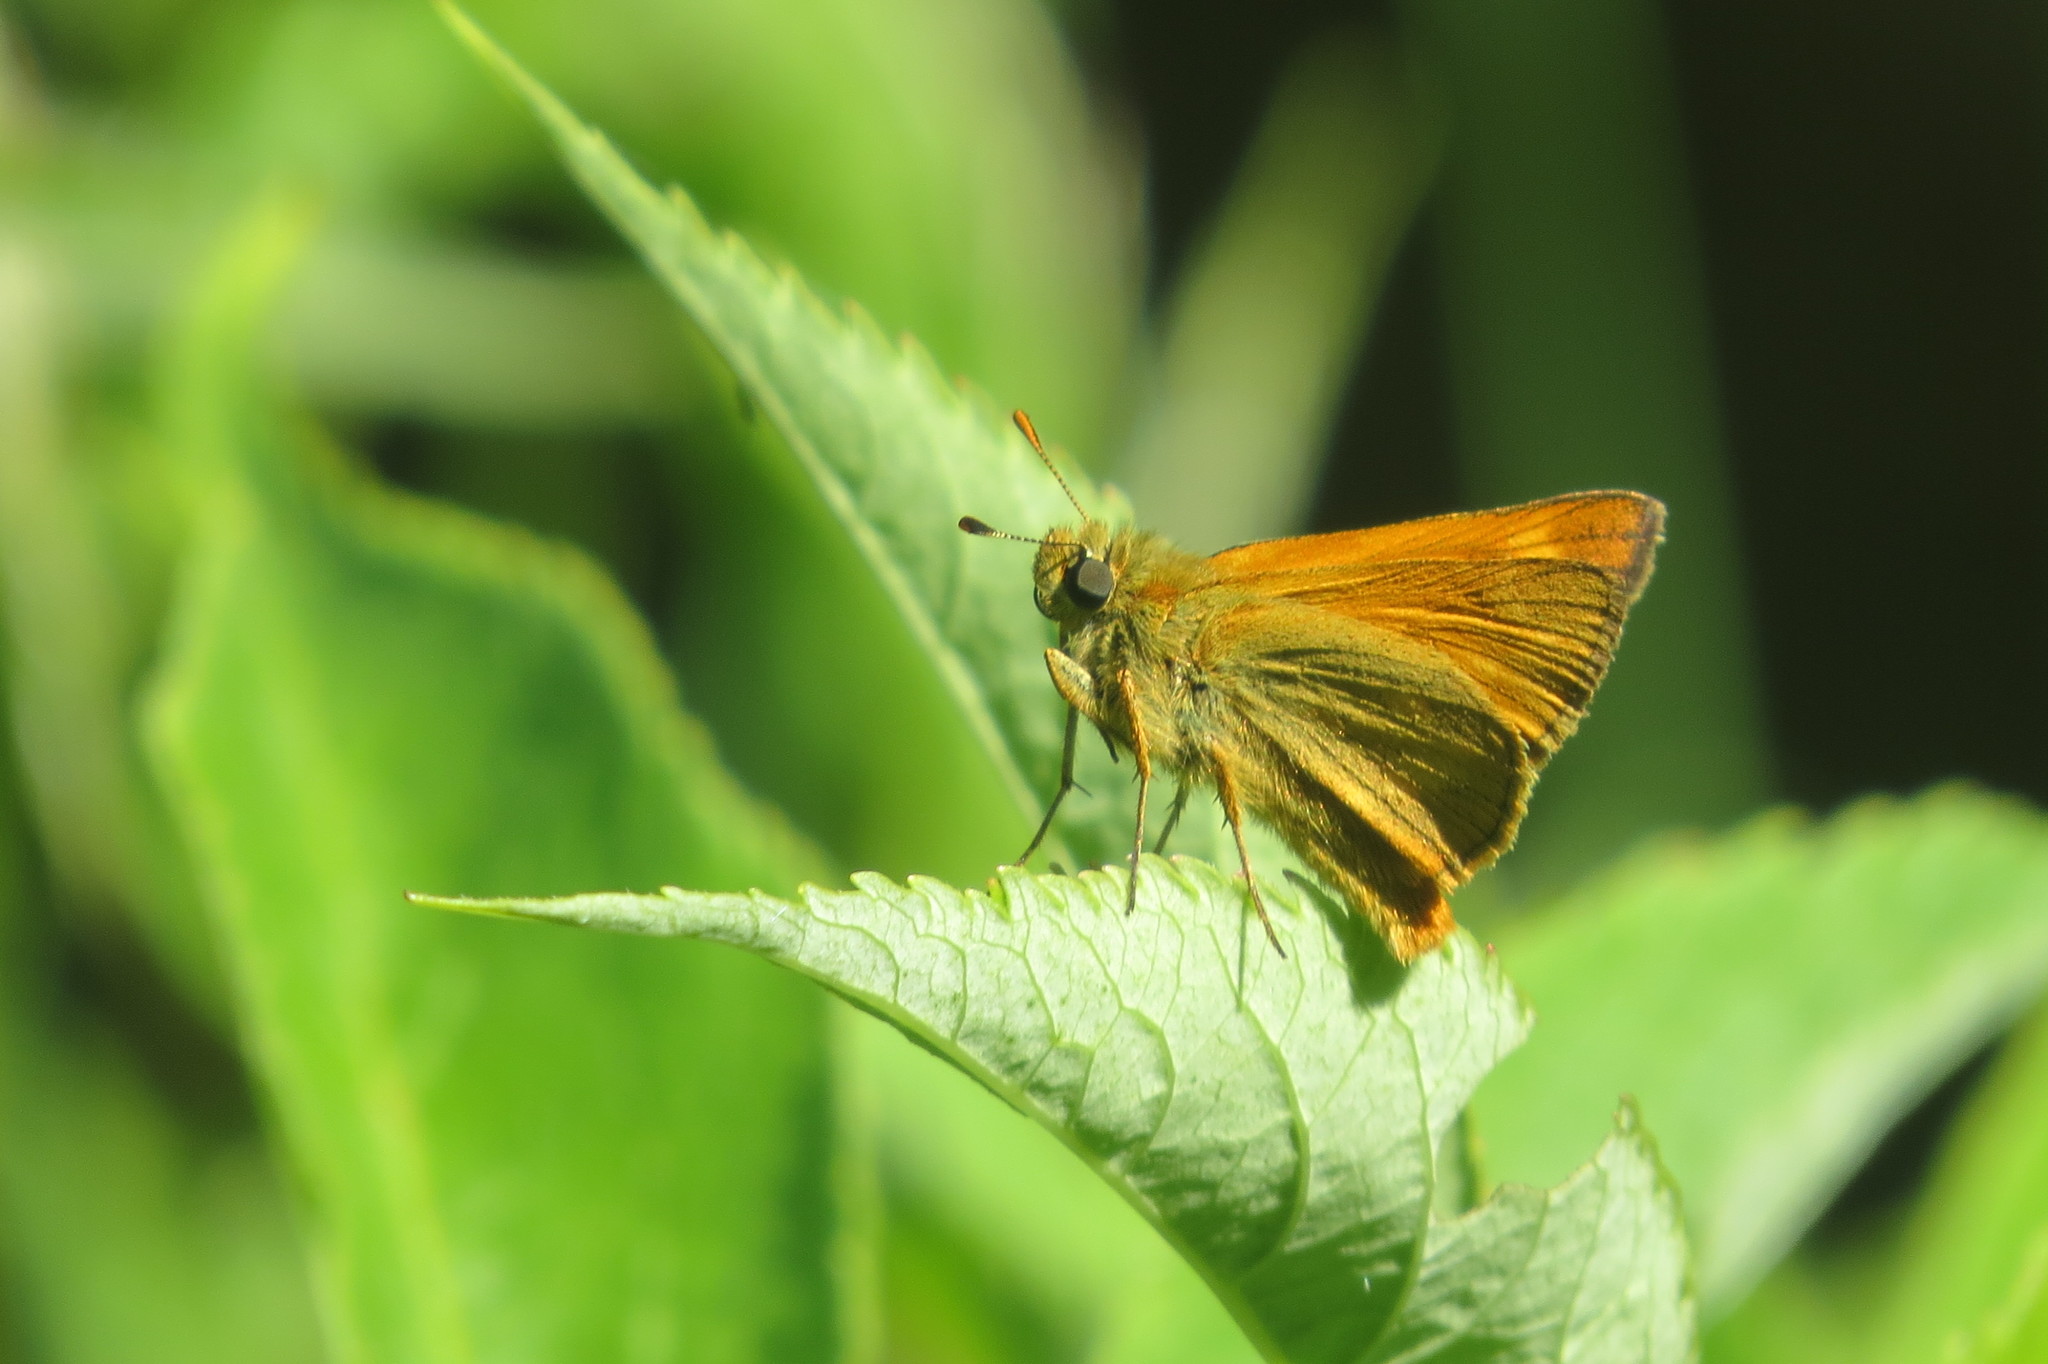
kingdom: Animalia
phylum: Arthropoda
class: Insecta
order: Lepidoptera
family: Hesperiidae
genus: Ochlodes
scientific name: Ochlodes venata
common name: Large skipper
